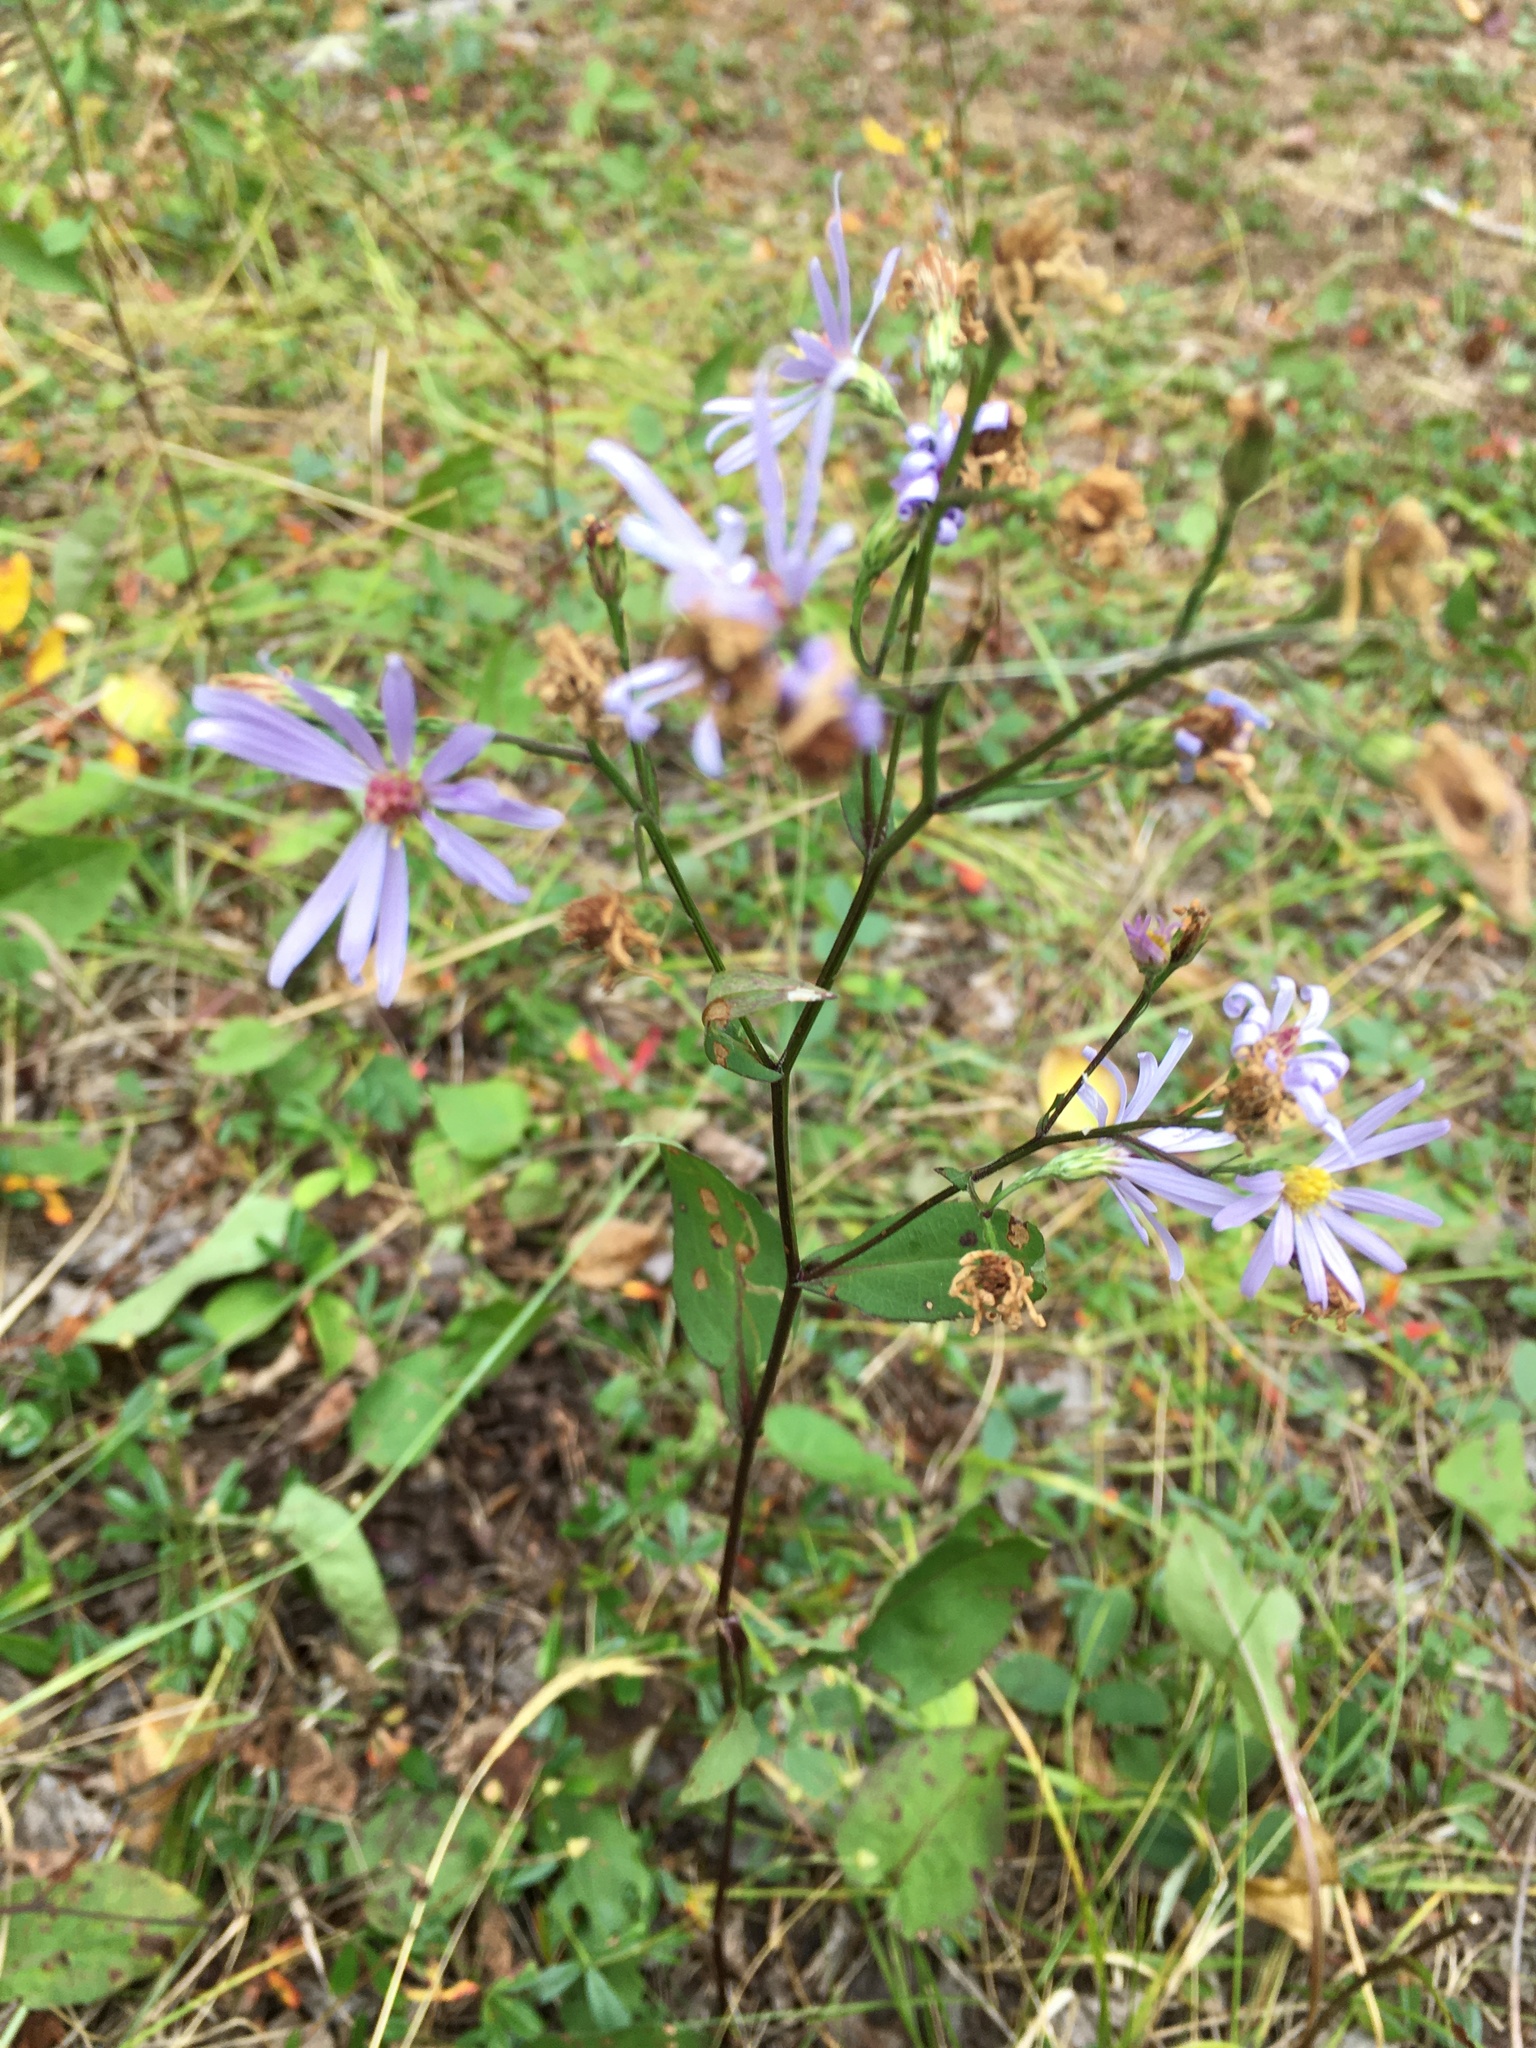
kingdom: Plantae
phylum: Tracheophyta
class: Magnoliopsida
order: Asterales
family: Asteraceae
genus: Symphyotrichum
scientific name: Symphyotrichum laeve
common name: Glaucous aster
